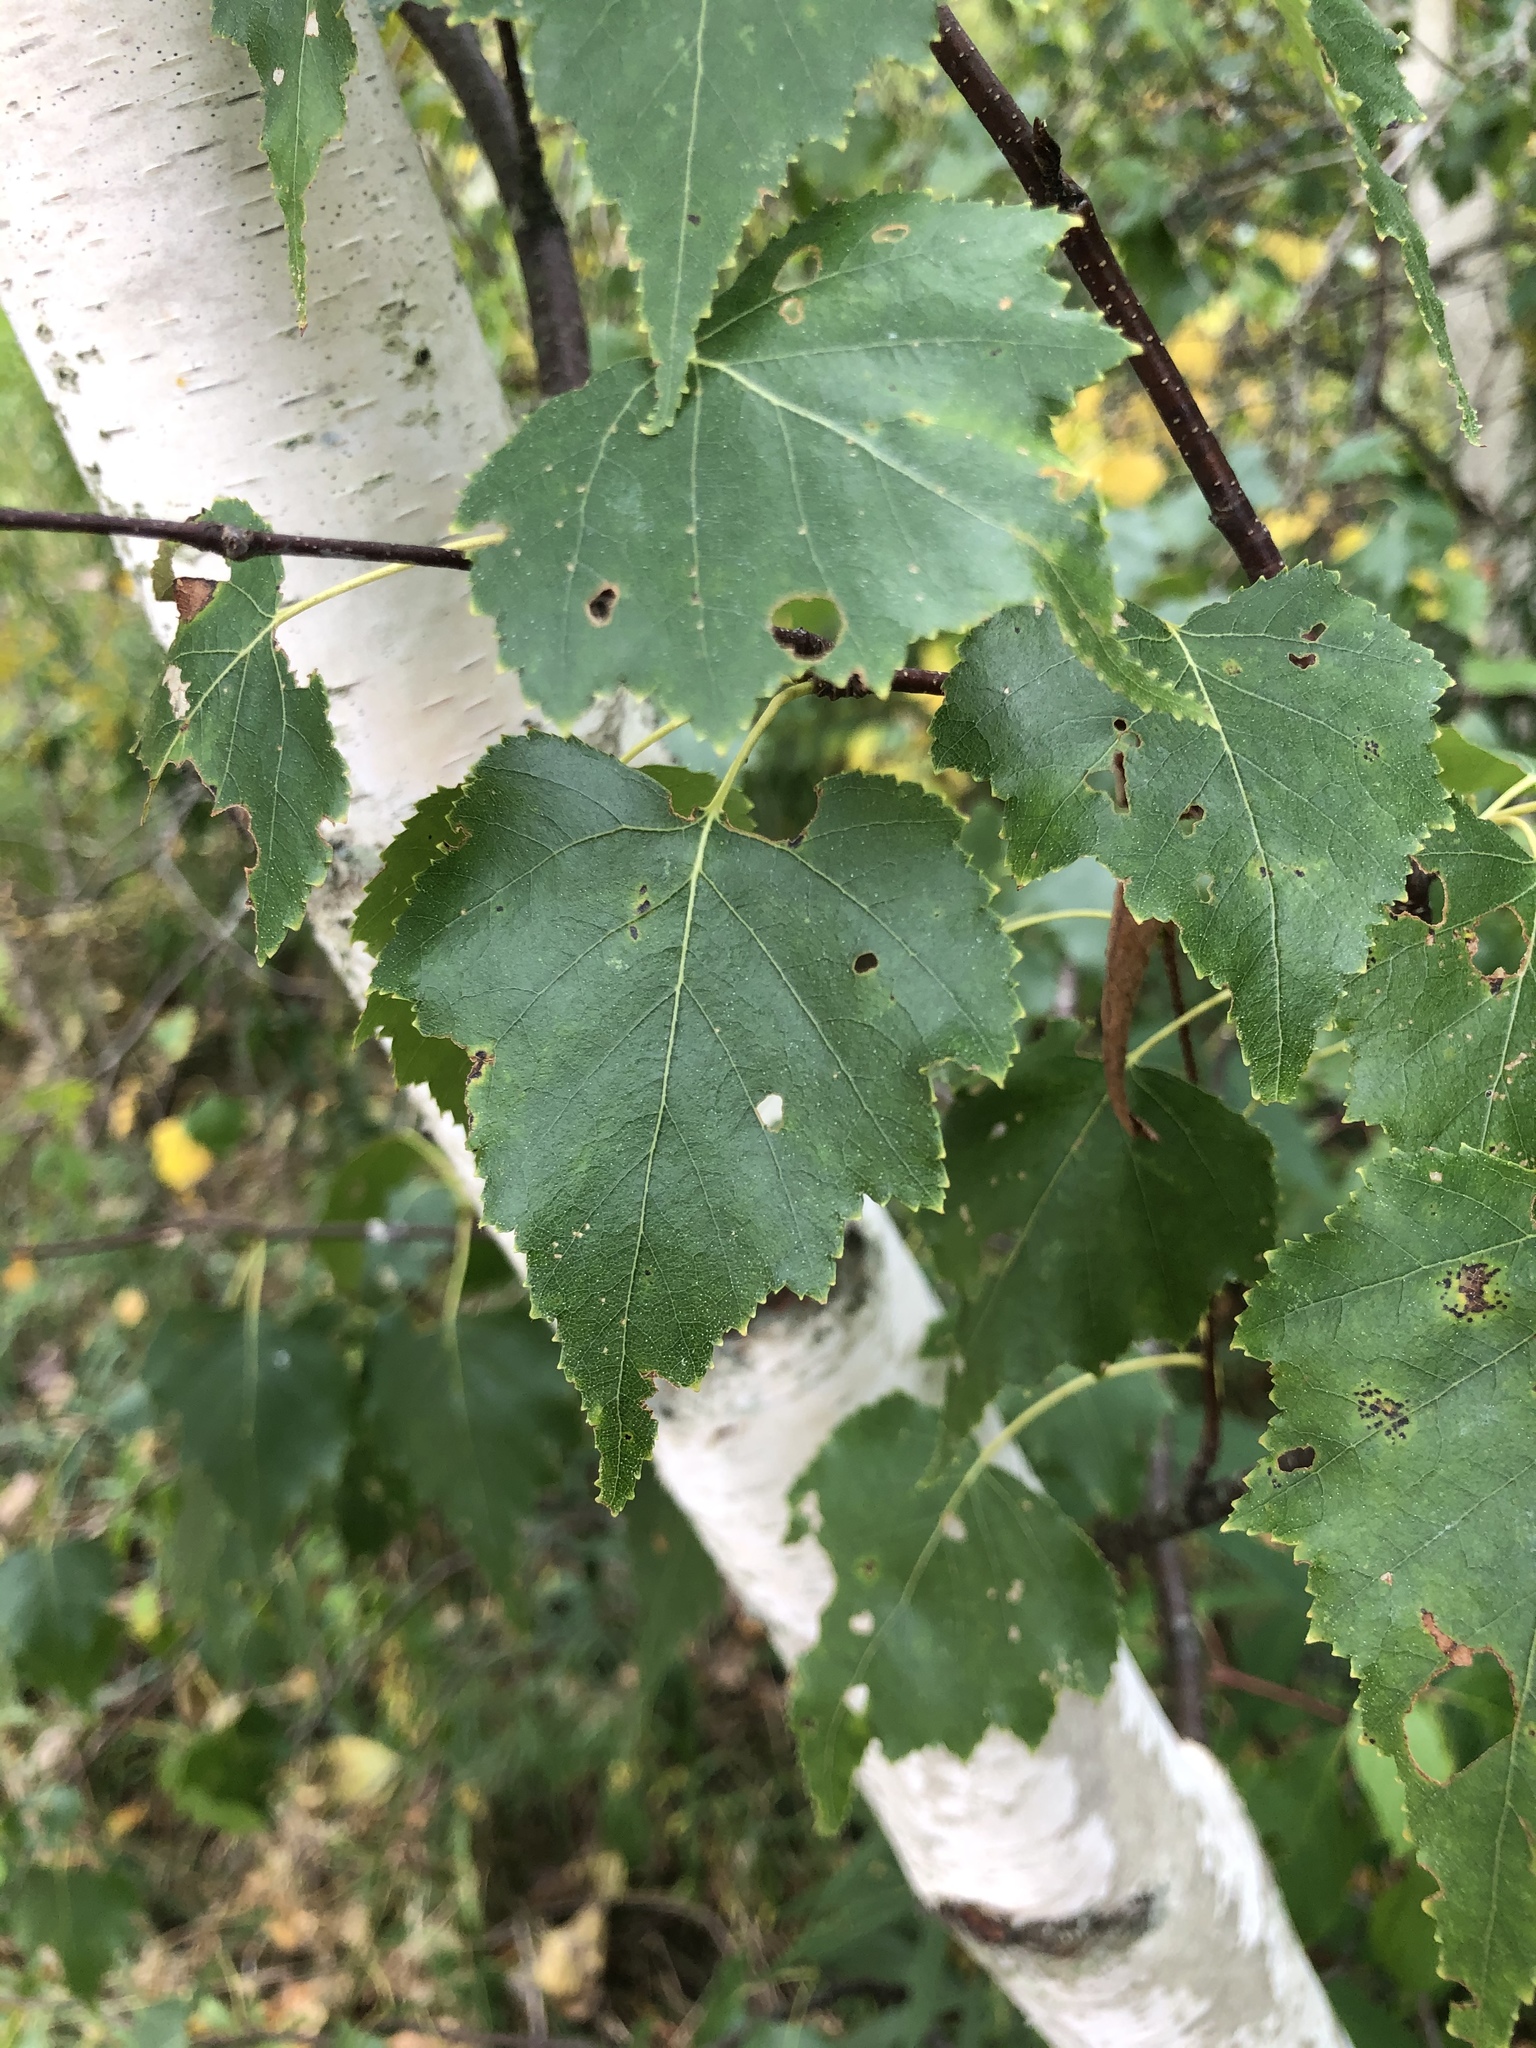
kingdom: Plantae
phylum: Tracheophyta
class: Magnoliopsida
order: Fagales
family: Betulaceae
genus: Betula
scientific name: Betula populifolia
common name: Fire birch
